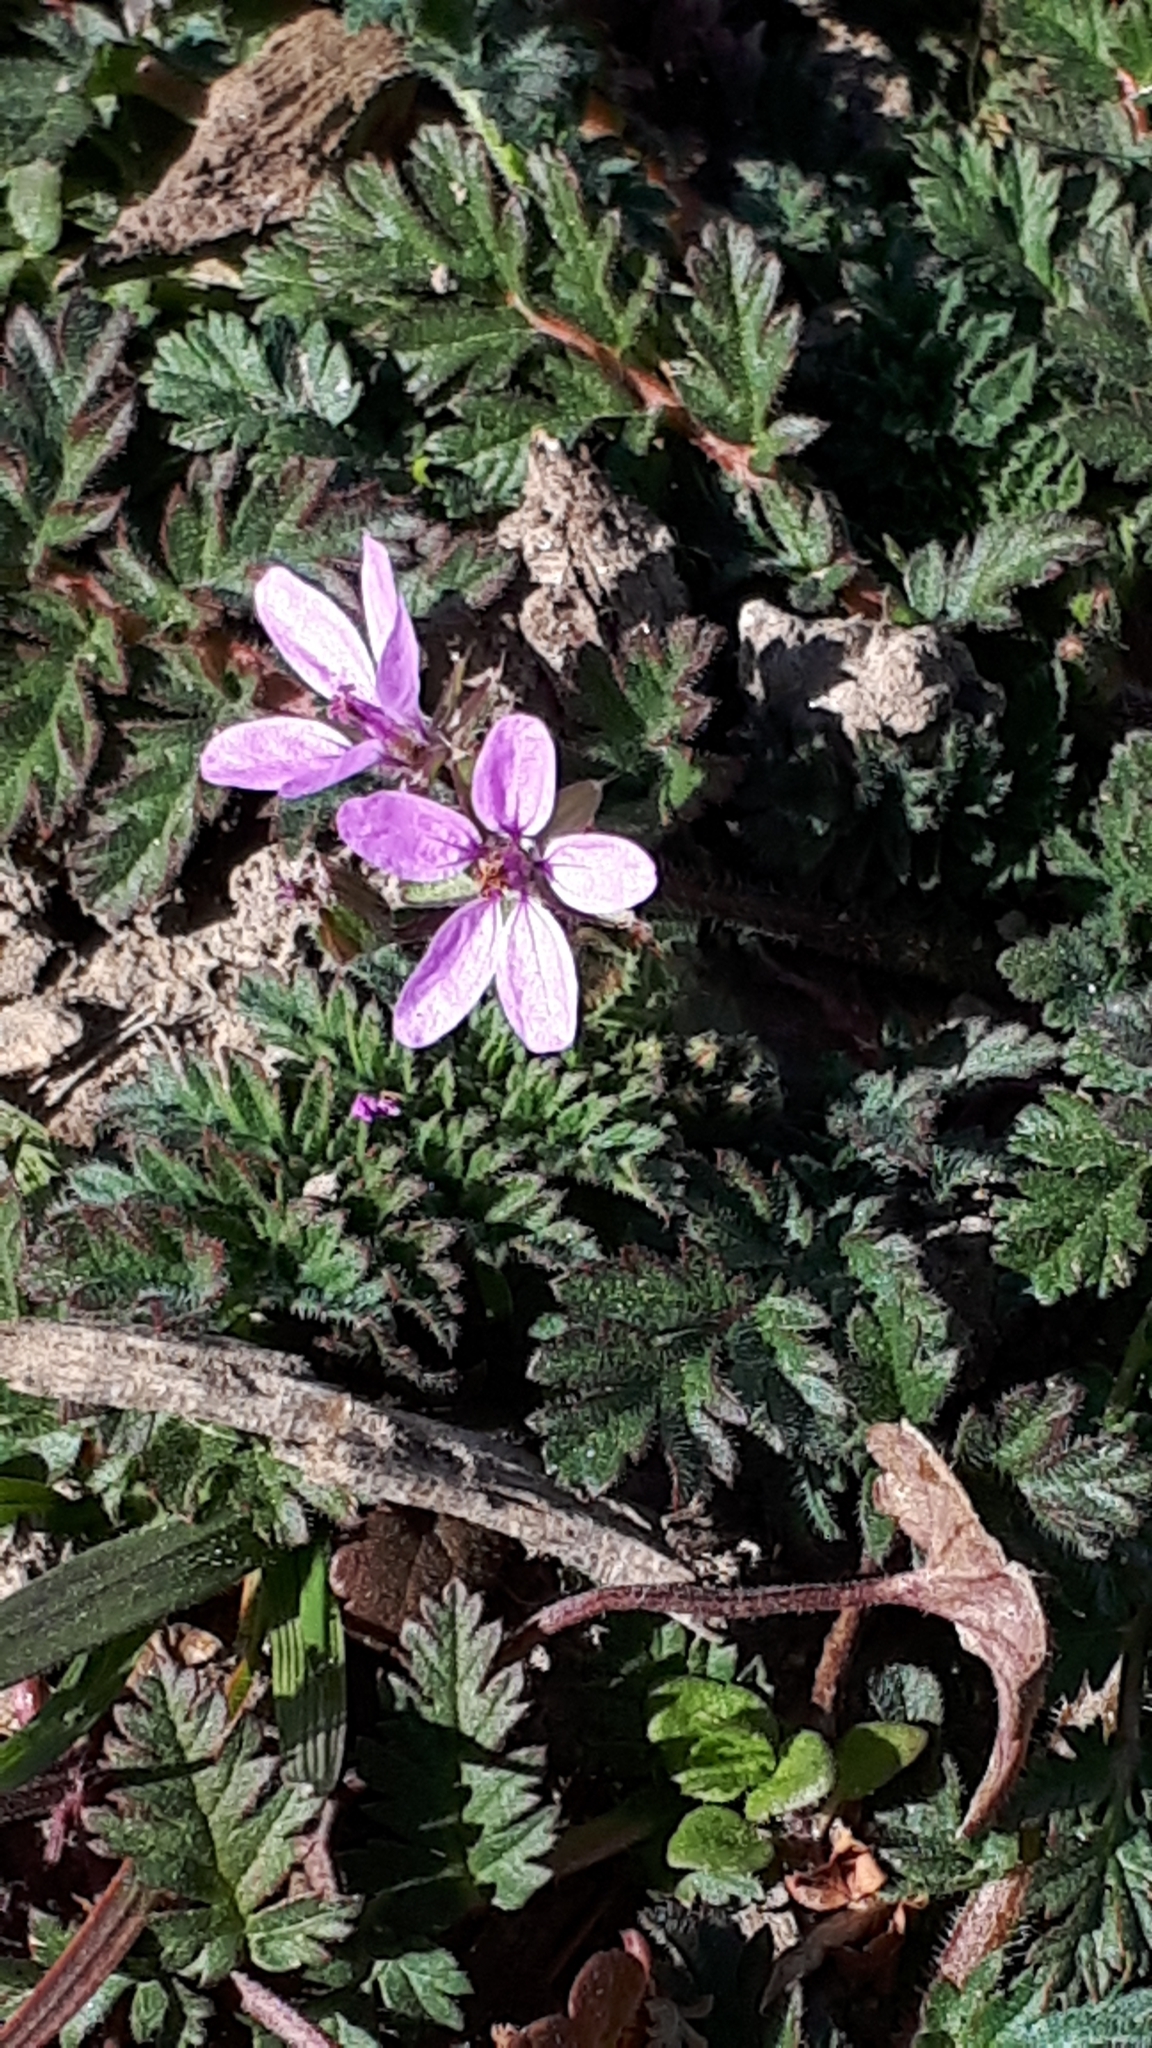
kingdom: Plantae
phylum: Tracheophyta
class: Magnoliopsida
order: Geraniales
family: Geraniaceae
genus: Erodium
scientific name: Erodium cicutarium
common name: Common stork's-bill
